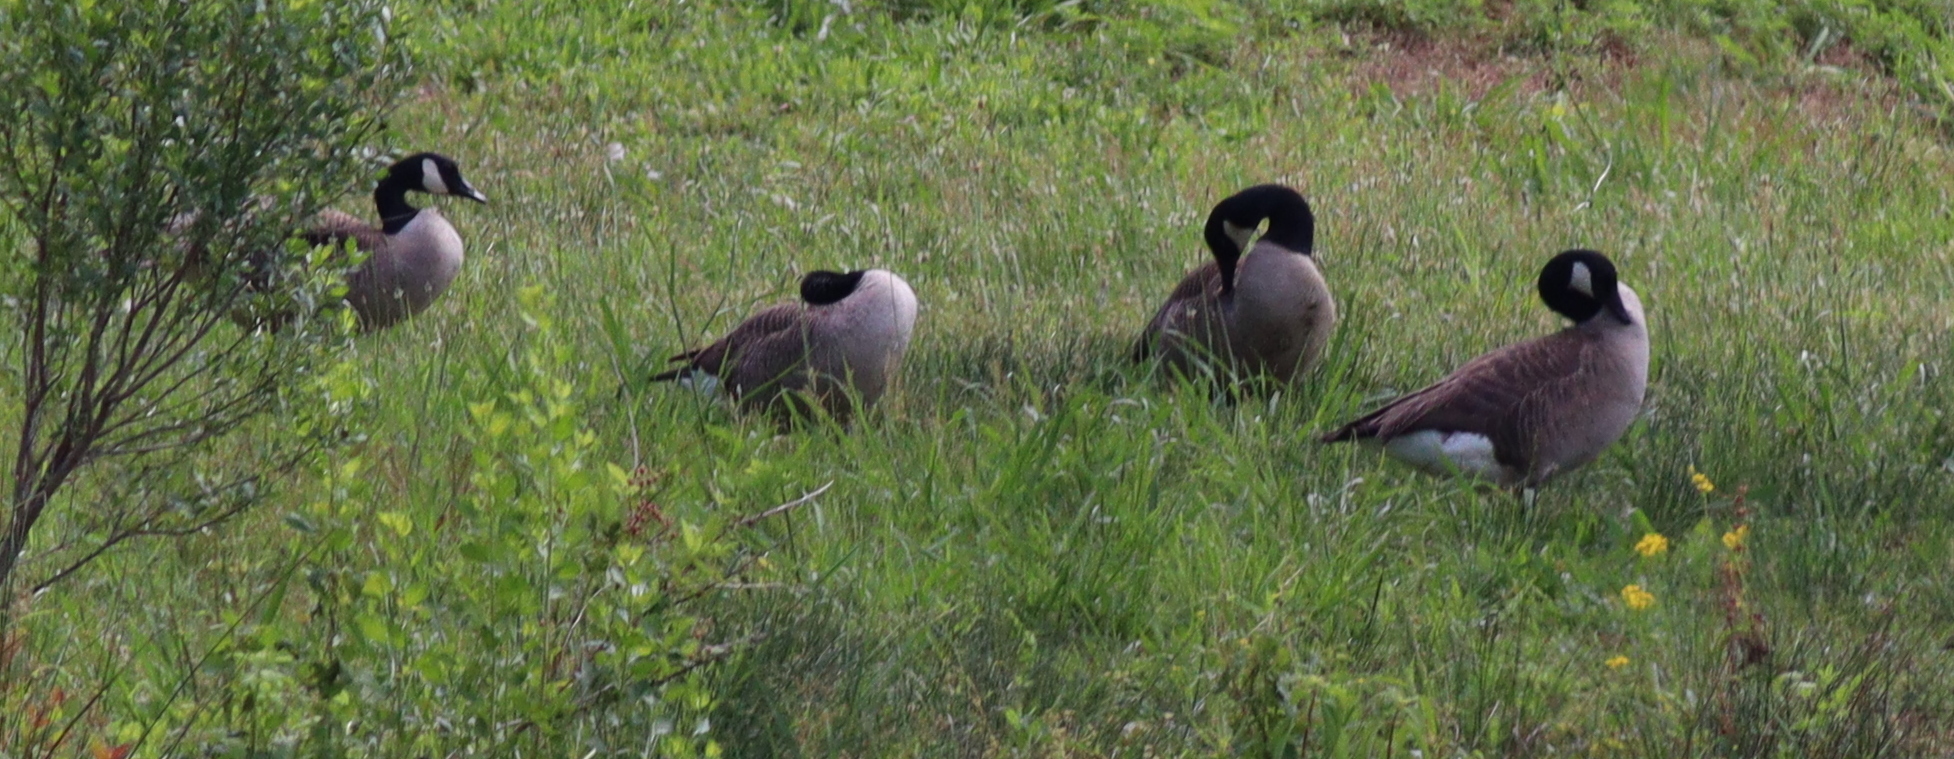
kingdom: Animalia
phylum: Chordata
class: Aves
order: Anseriformes
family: Anatidae
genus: Branta
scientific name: Branta canadensis
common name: Canada goose
